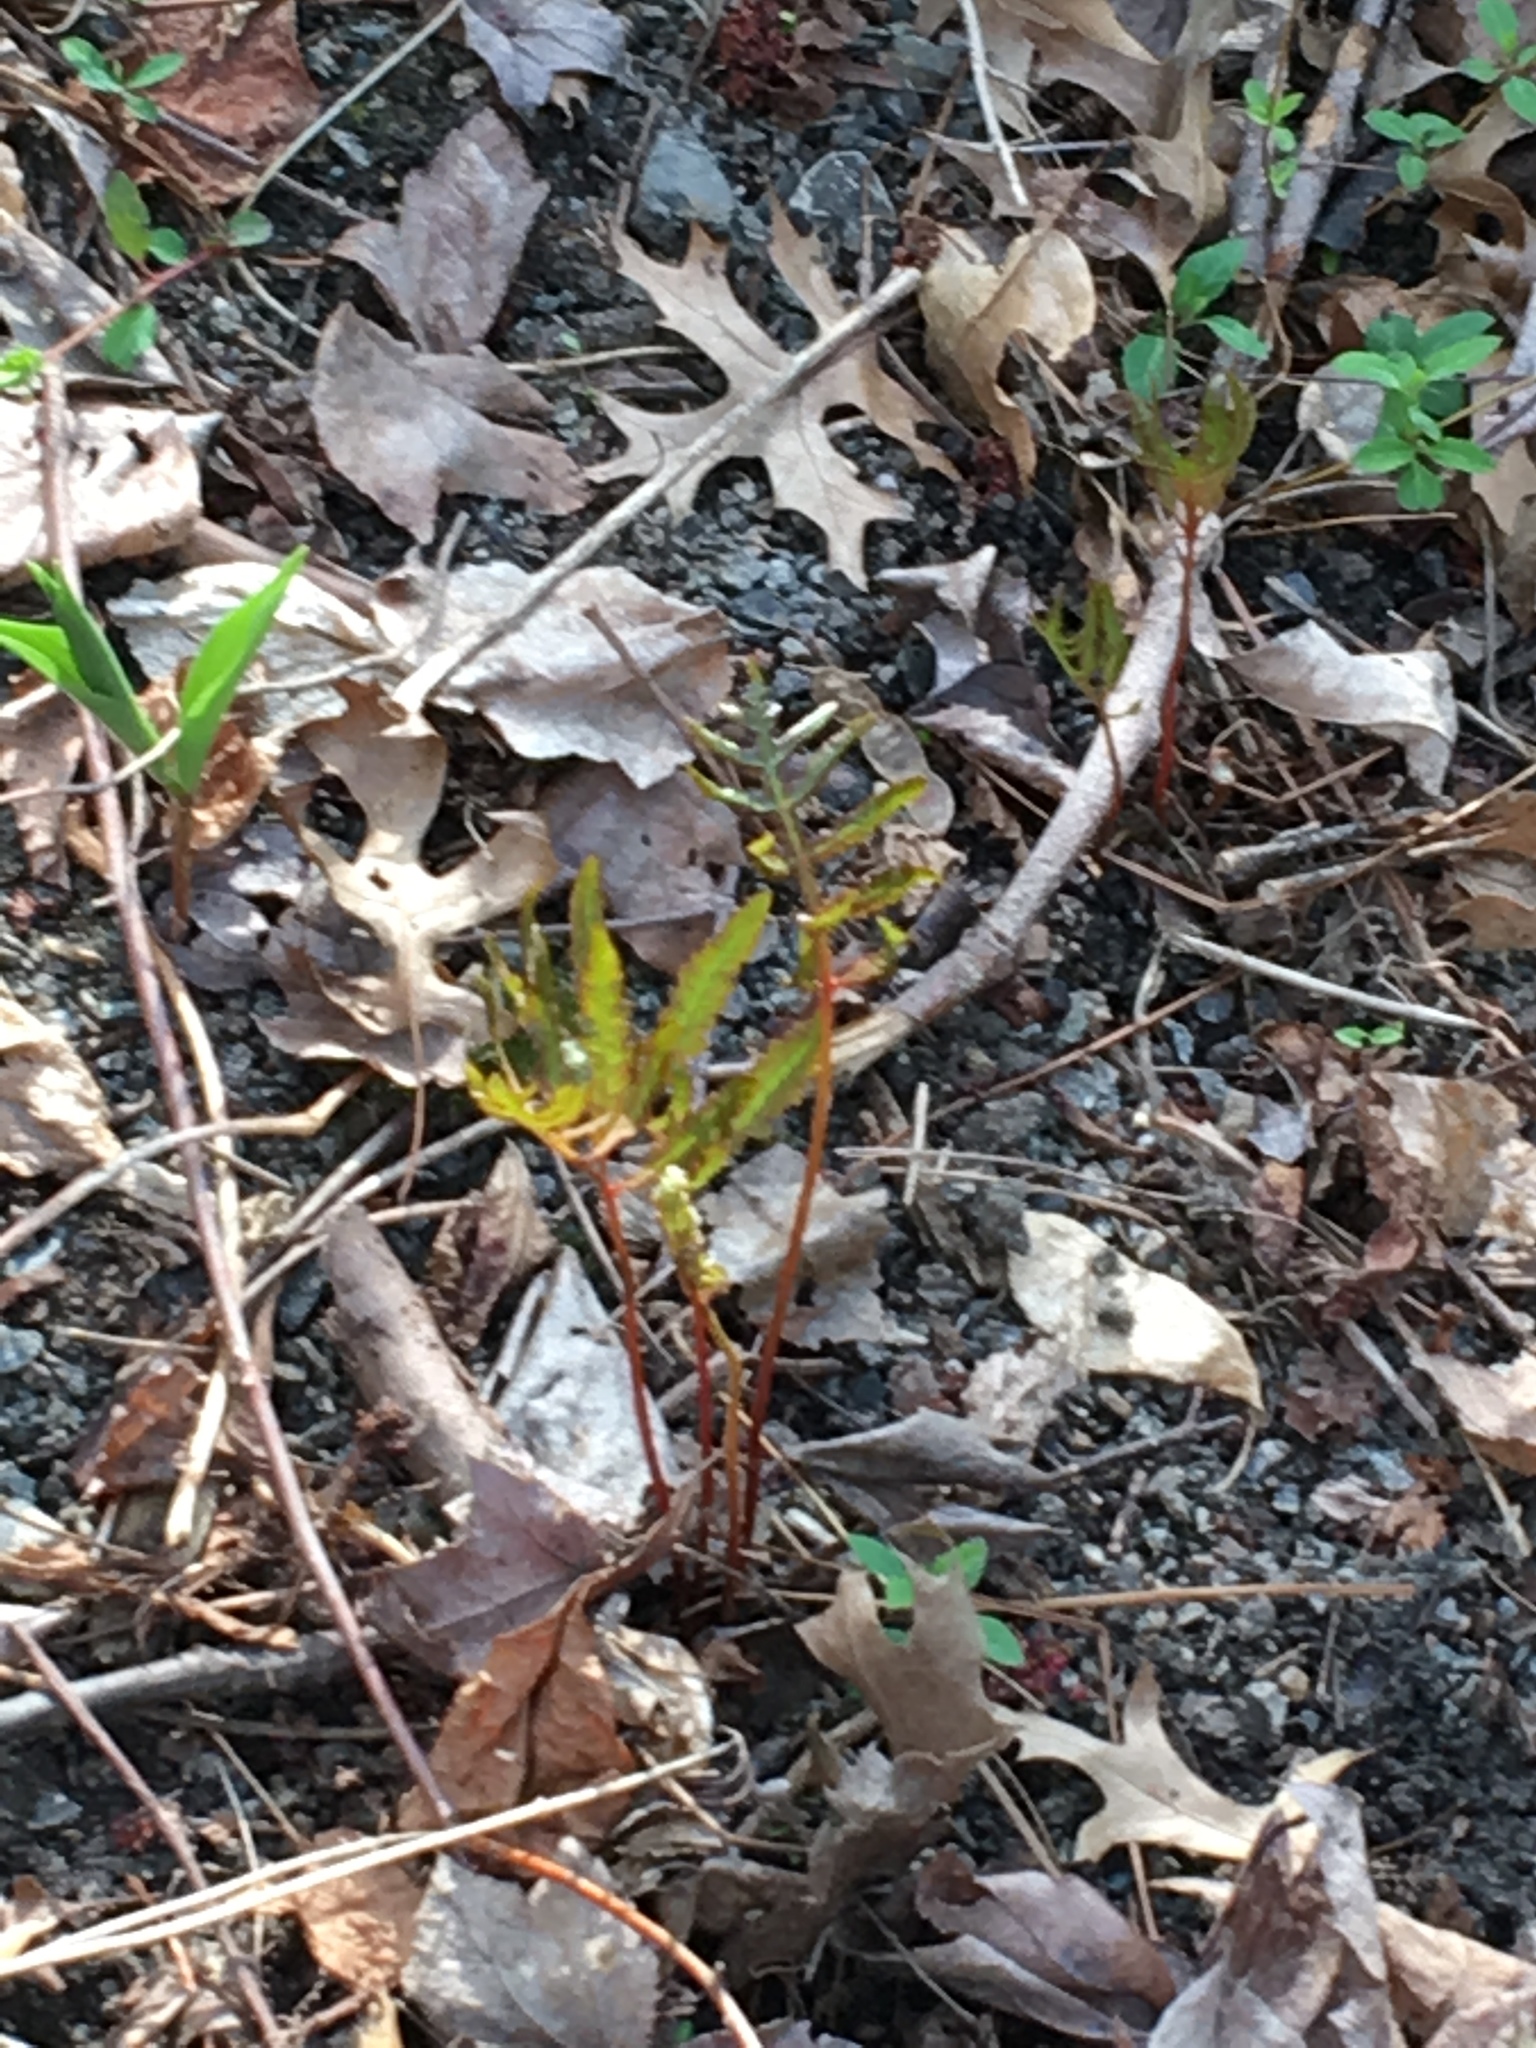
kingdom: Plantae
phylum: Tracheophyta
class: Polypodiopsida
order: Polypodiales
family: Onocleaceae
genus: Onoclea
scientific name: Onoclea sensibilis
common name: Sensitive fern
